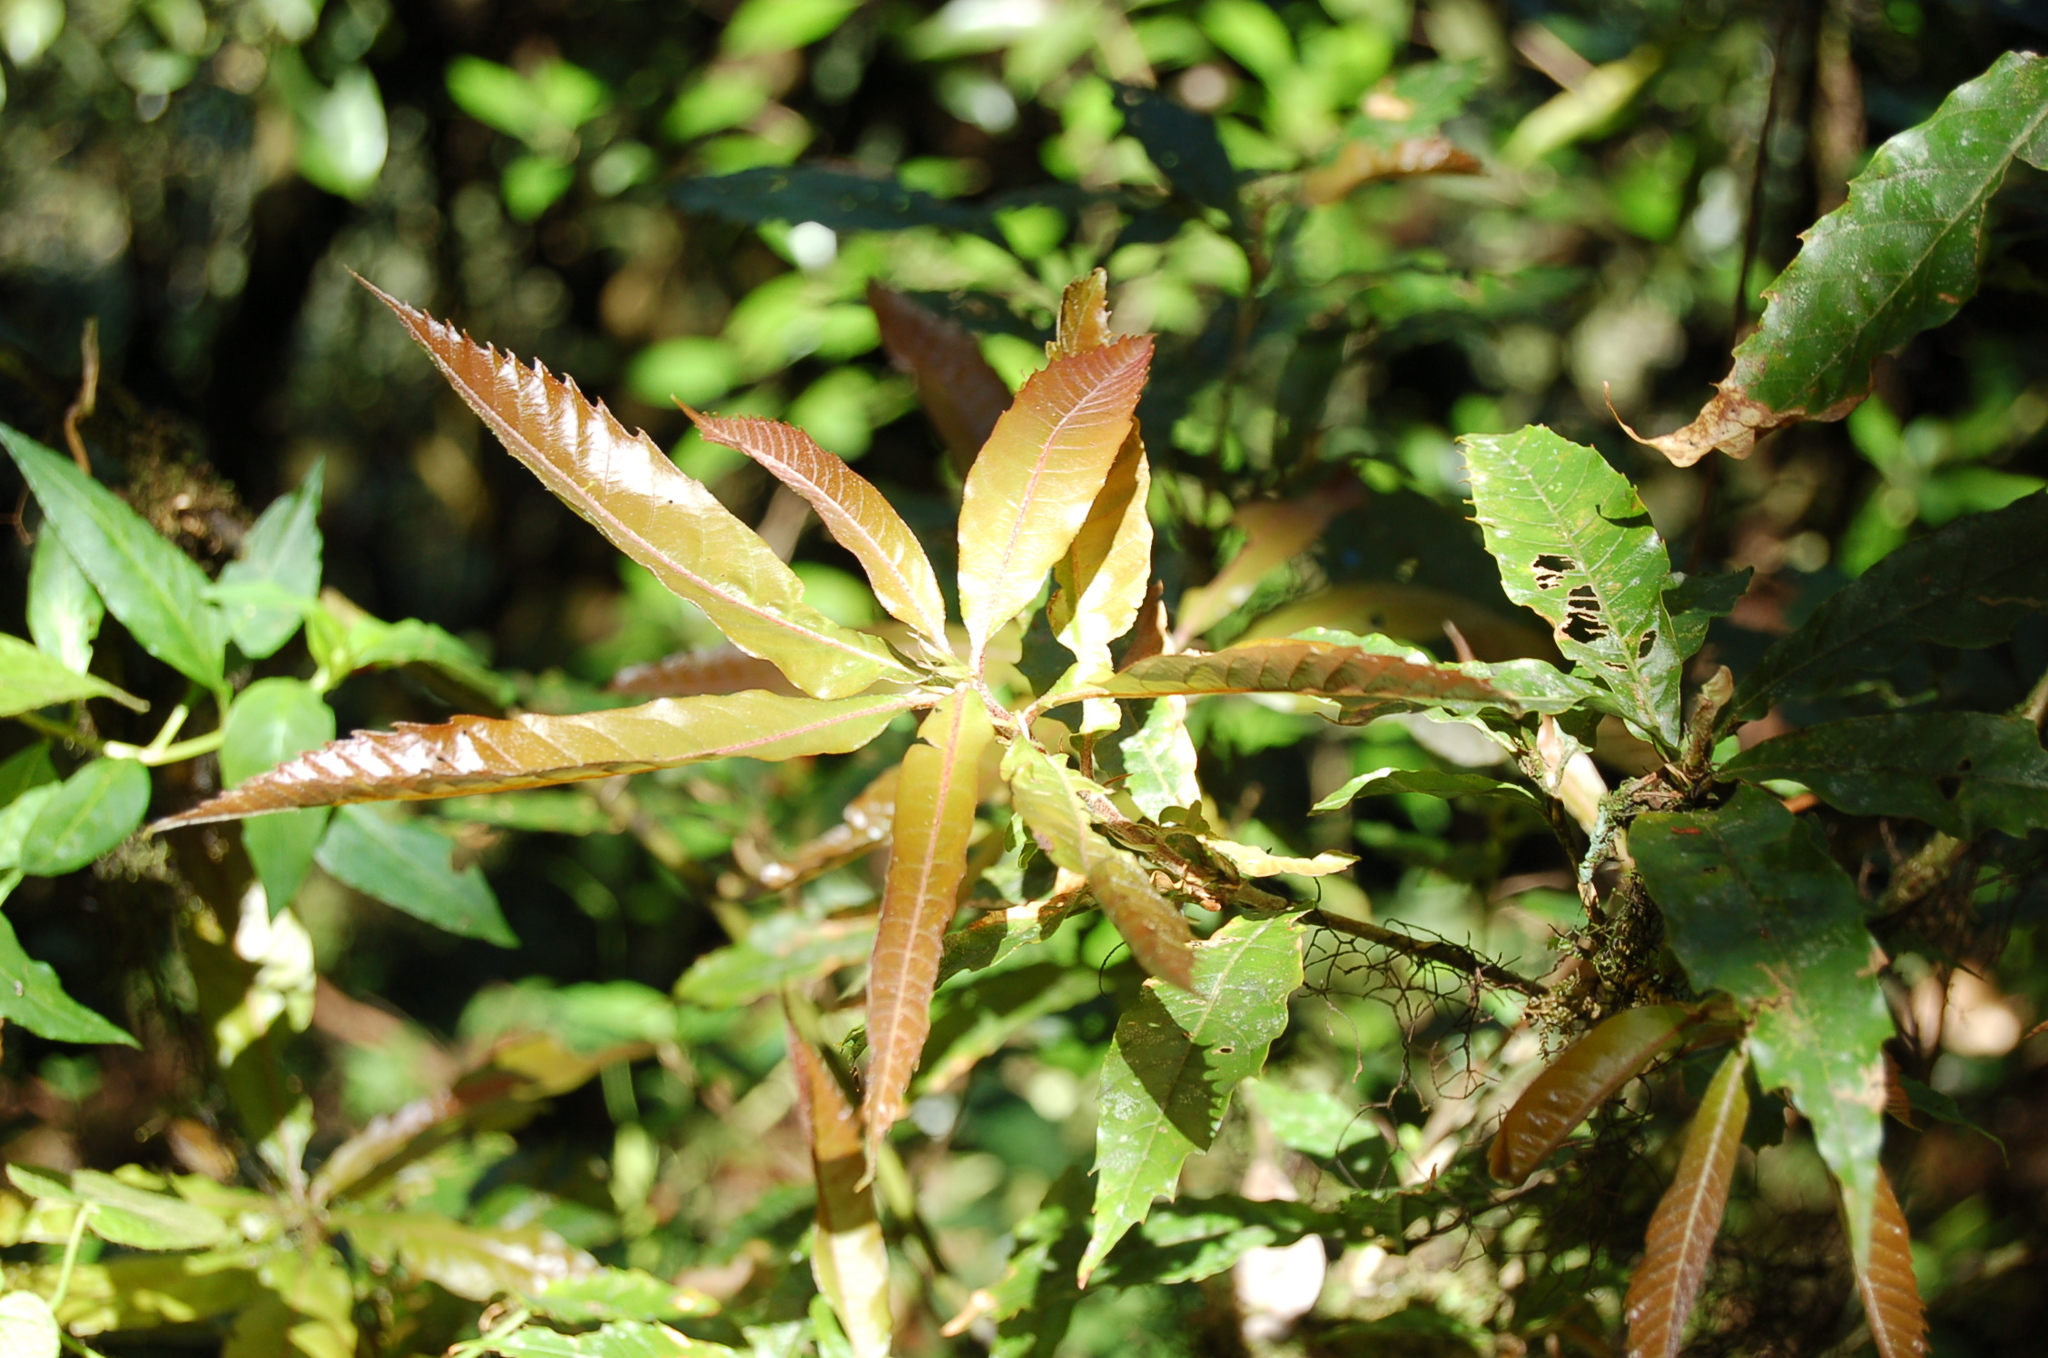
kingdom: Plantae
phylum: Tracheophyta
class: Magnoliopsida
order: Fagales
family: Fagaceae
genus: Quercus
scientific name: Quercus corrugata
